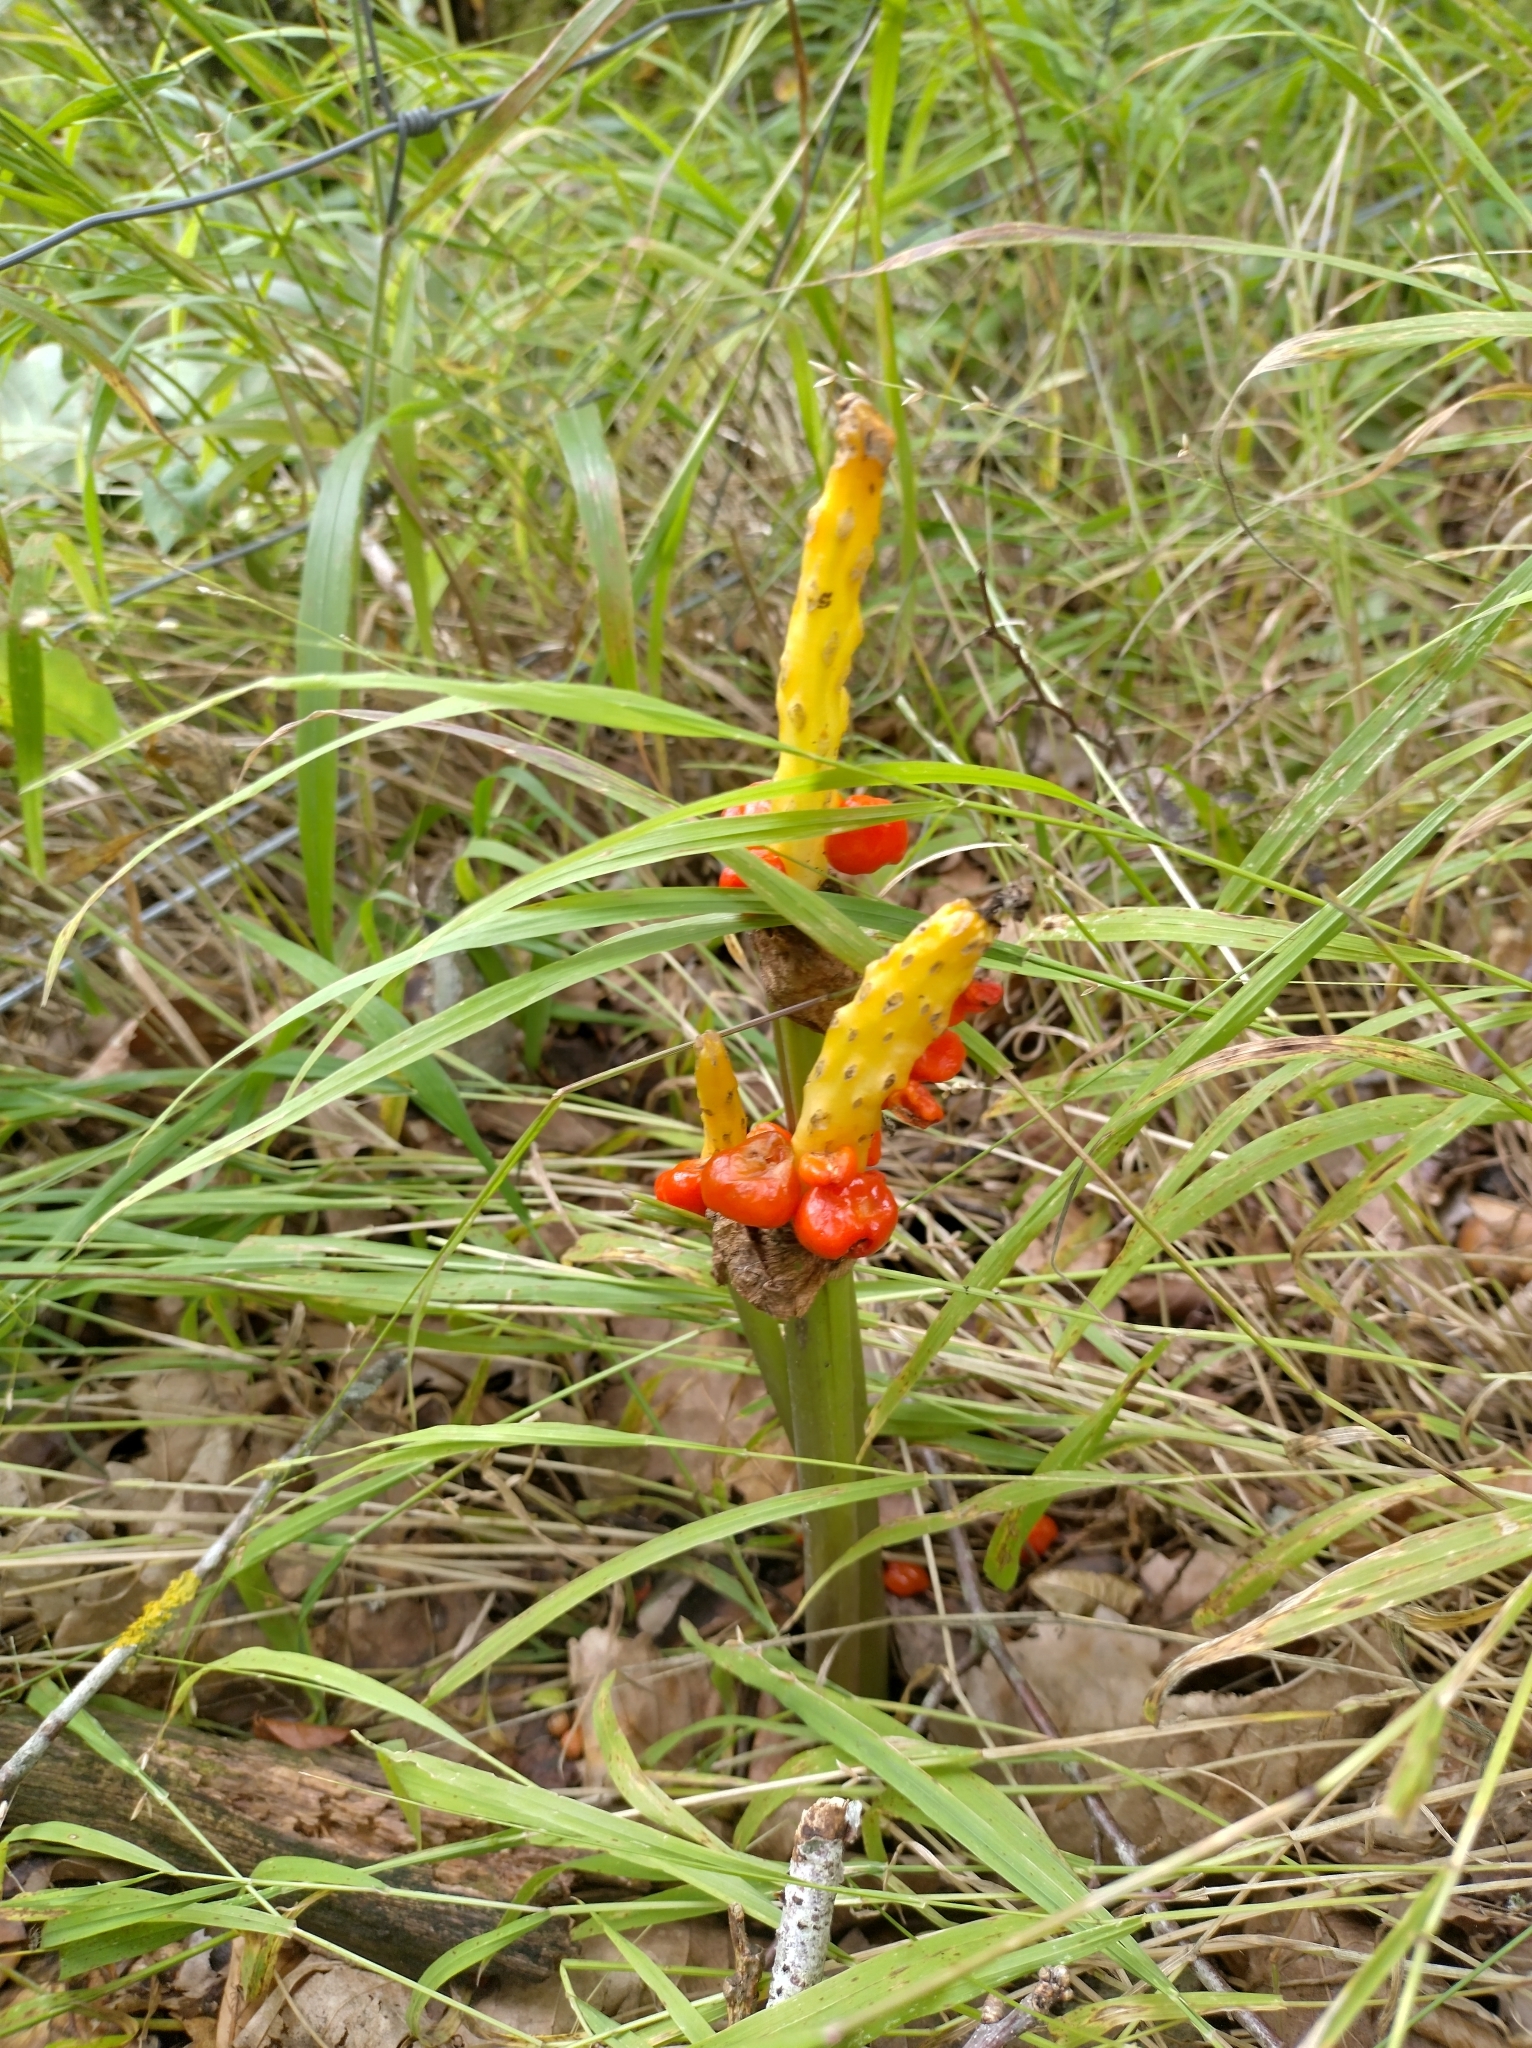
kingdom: Plantae
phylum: Tracheophyta
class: Liliopsida
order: Alismatales
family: Araceae
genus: Arum
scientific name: Arum maculatum
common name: Lords-and-ladies
